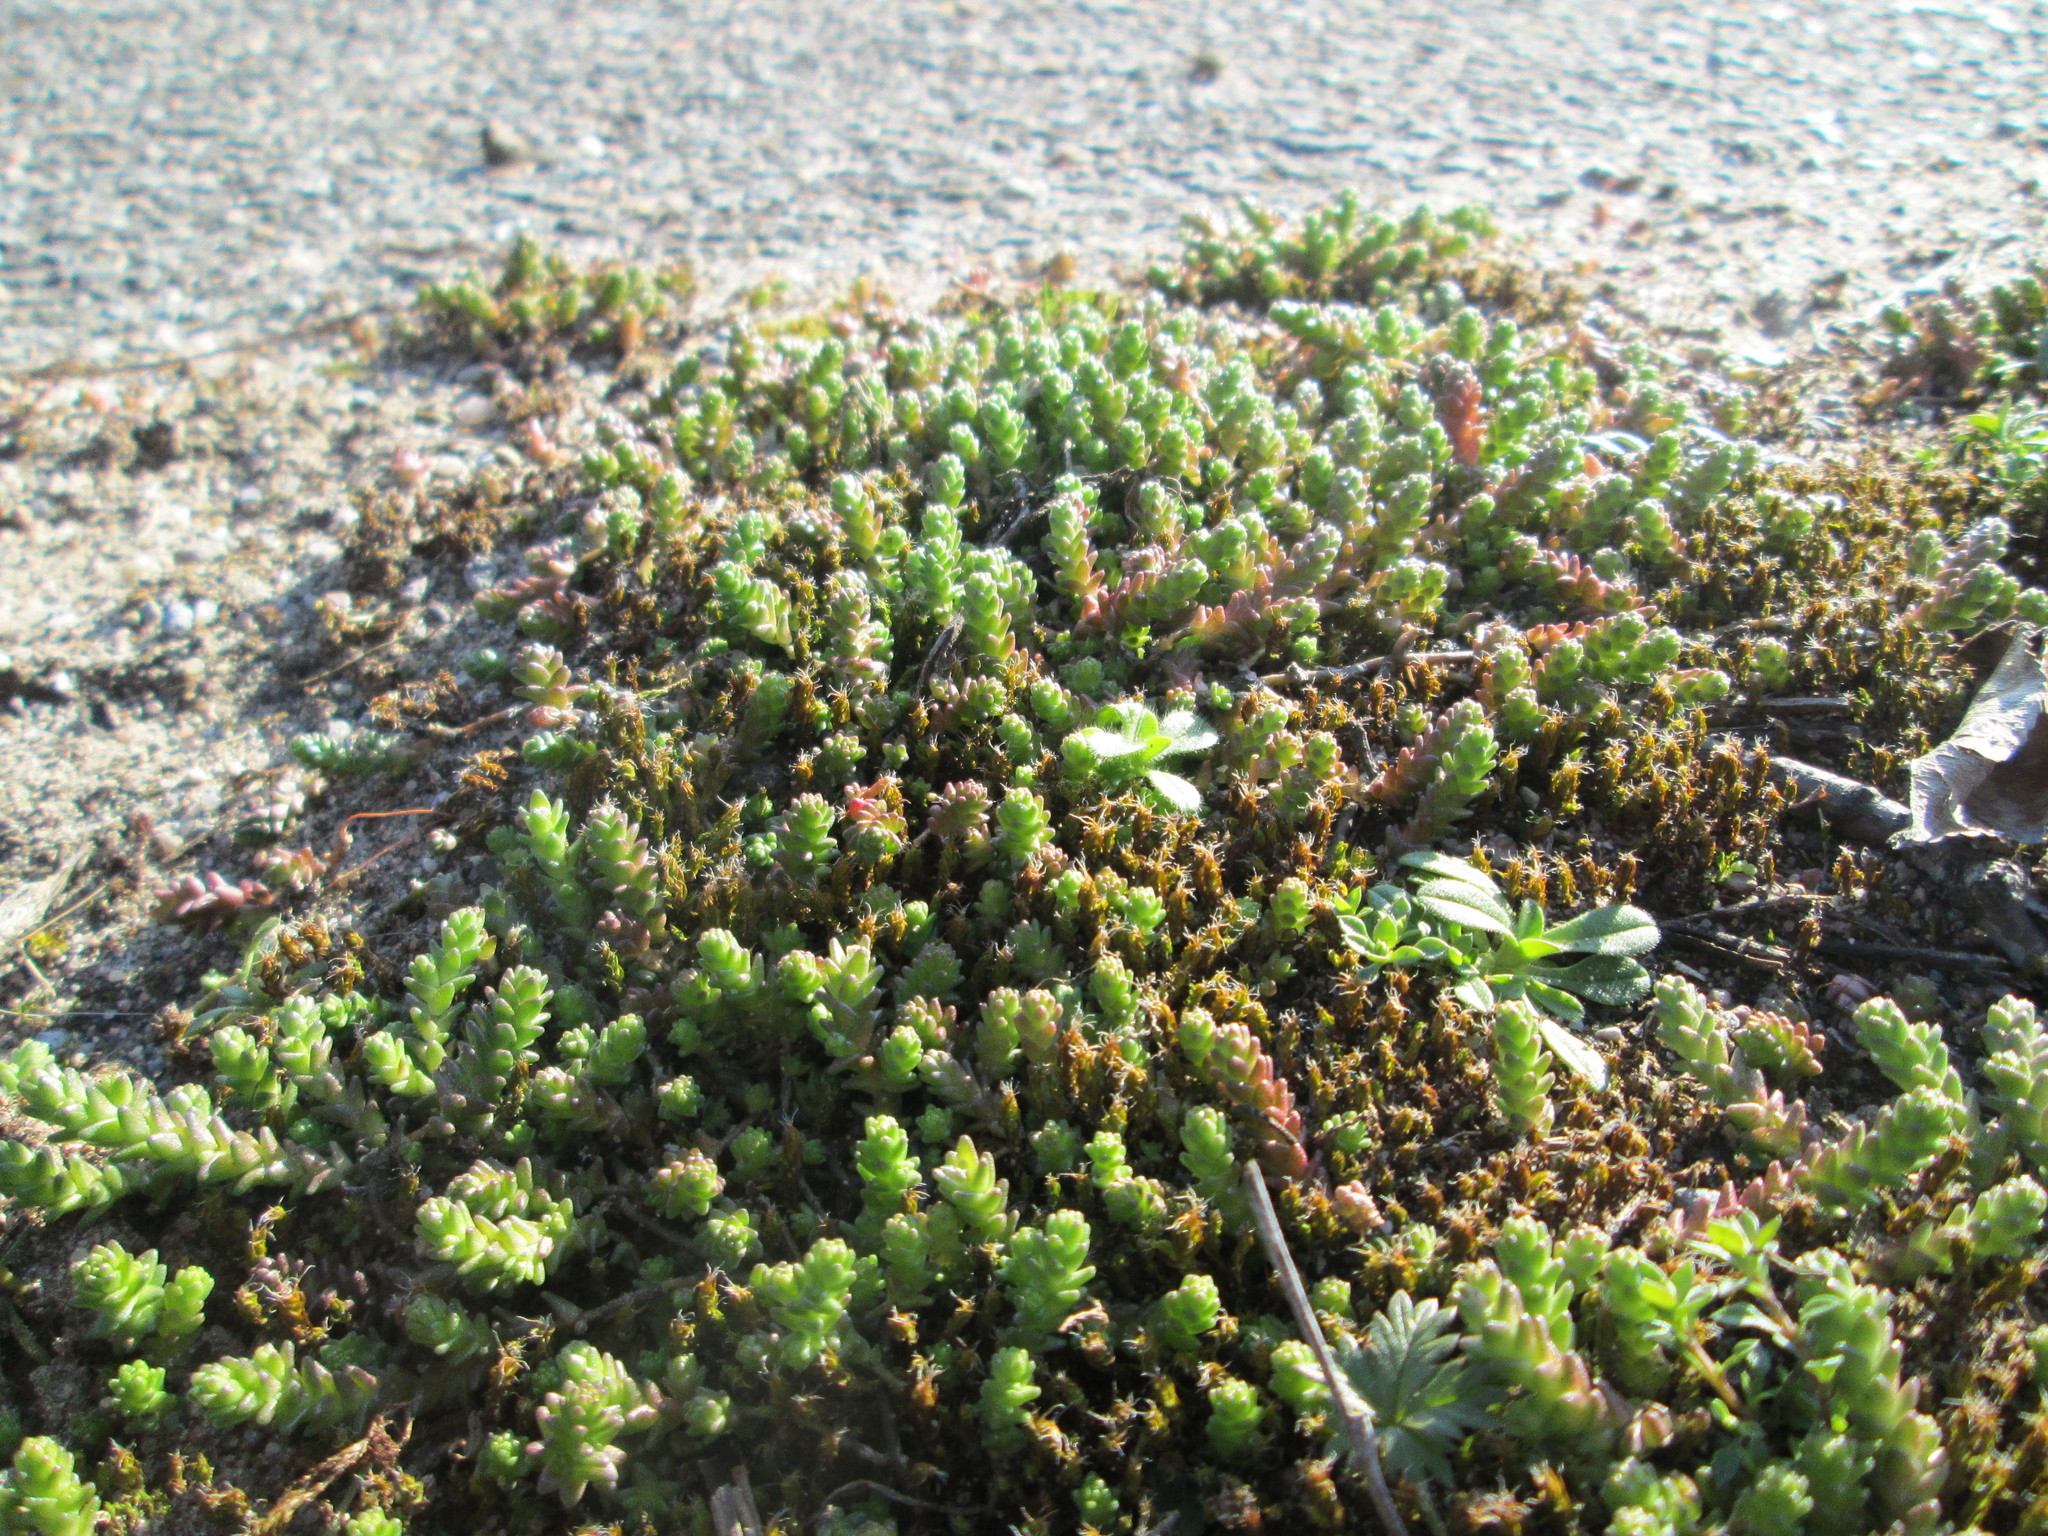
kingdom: Plantae
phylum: Tracheophyta
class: Magnoliopsida
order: Saxifragales
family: Crassulaceae
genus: Sedum
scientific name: Sedum acre
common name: Biting stonecrop
